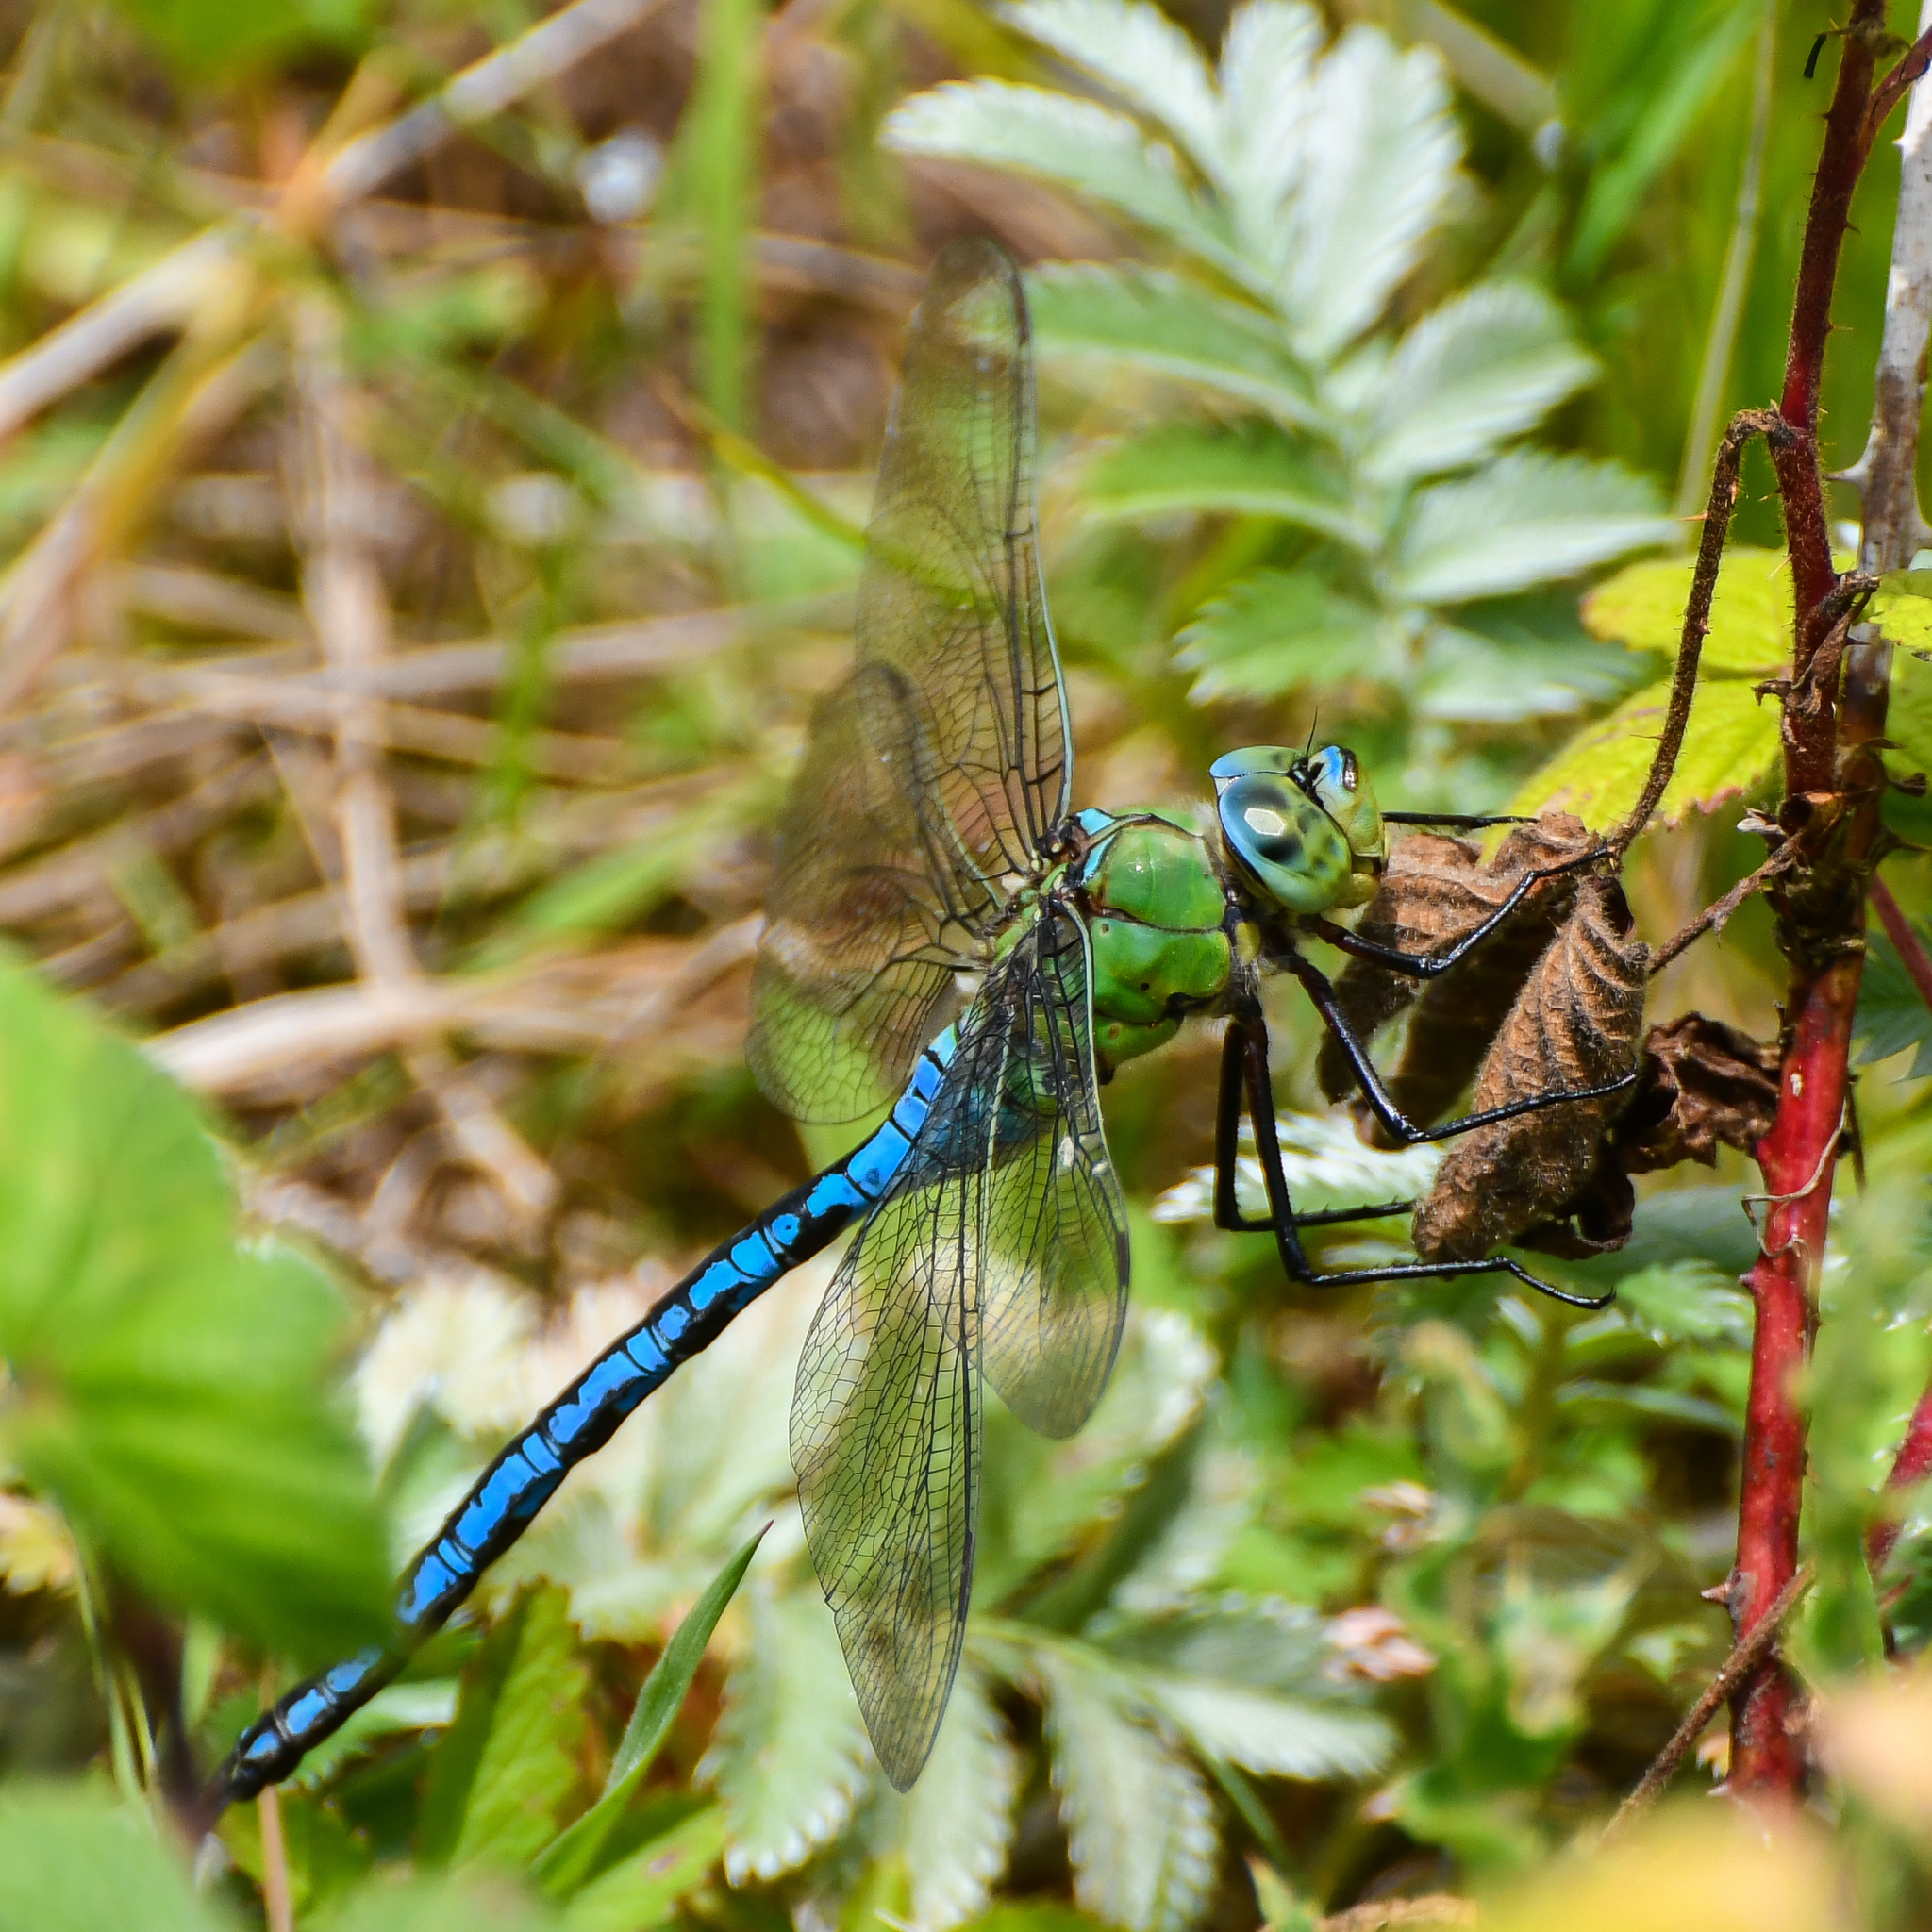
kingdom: Animalia
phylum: Arthropoda
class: Insecta
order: Odonata
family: Aeshnidae
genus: Anax
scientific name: Anax imperator
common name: Emperor dragonfly
